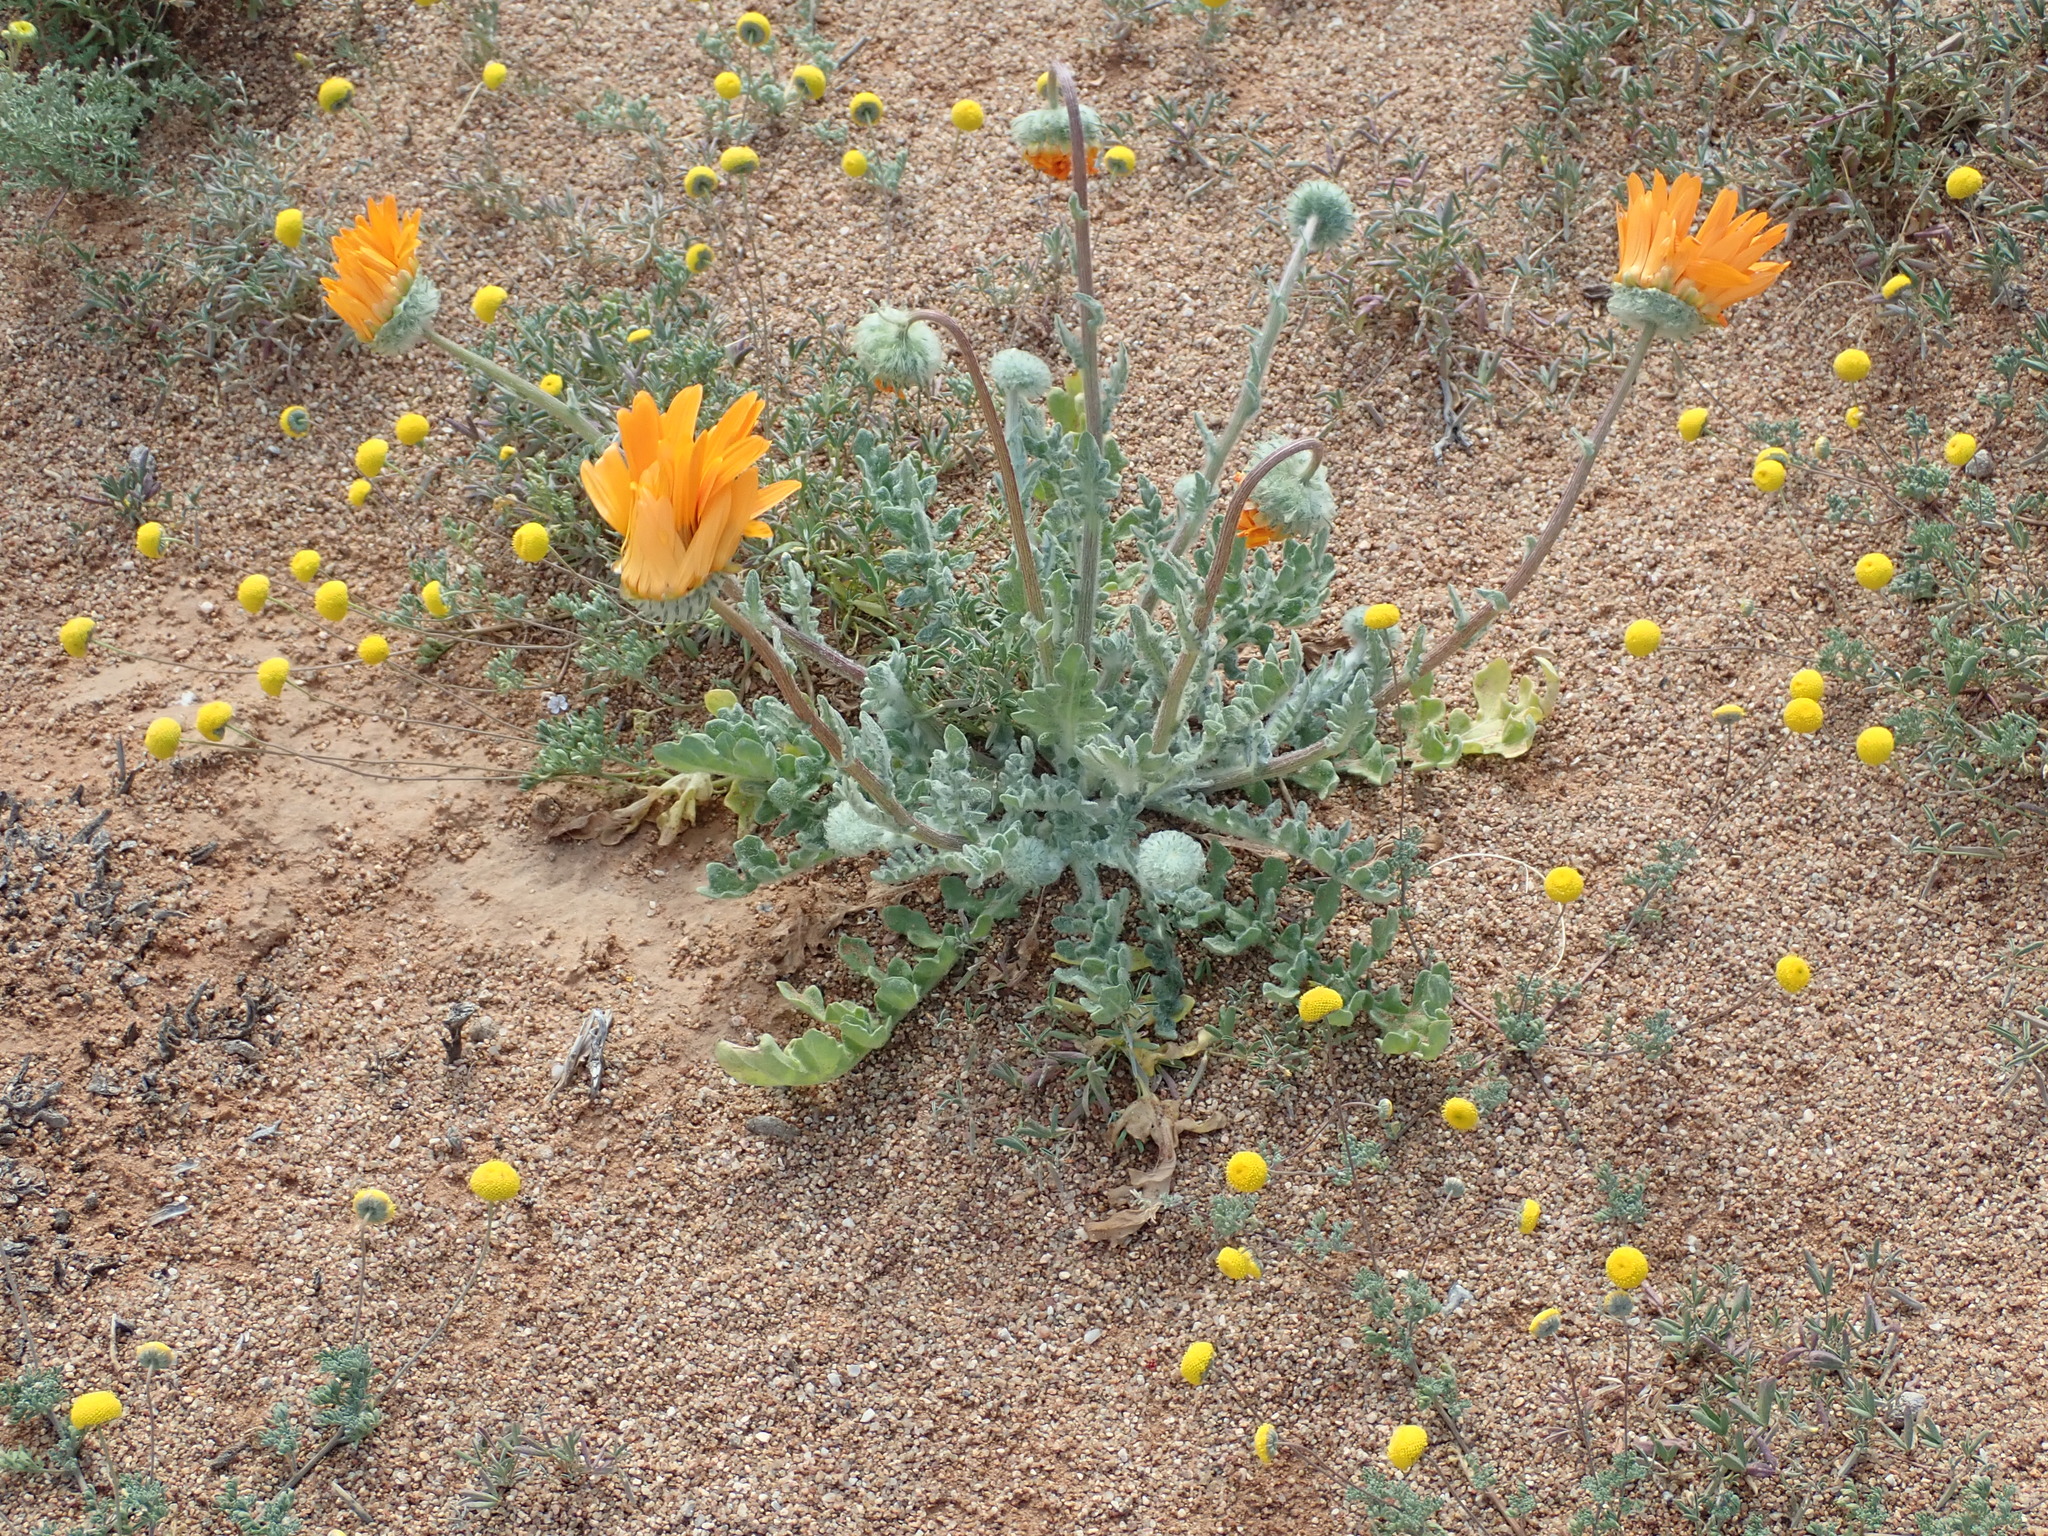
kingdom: Plantae
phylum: Tracheophyta
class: Magnoliopsida
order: Asterales
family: Asteraceae
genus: Arctotis
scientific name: Arctotis fastuosa
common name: Monarch of the veld
